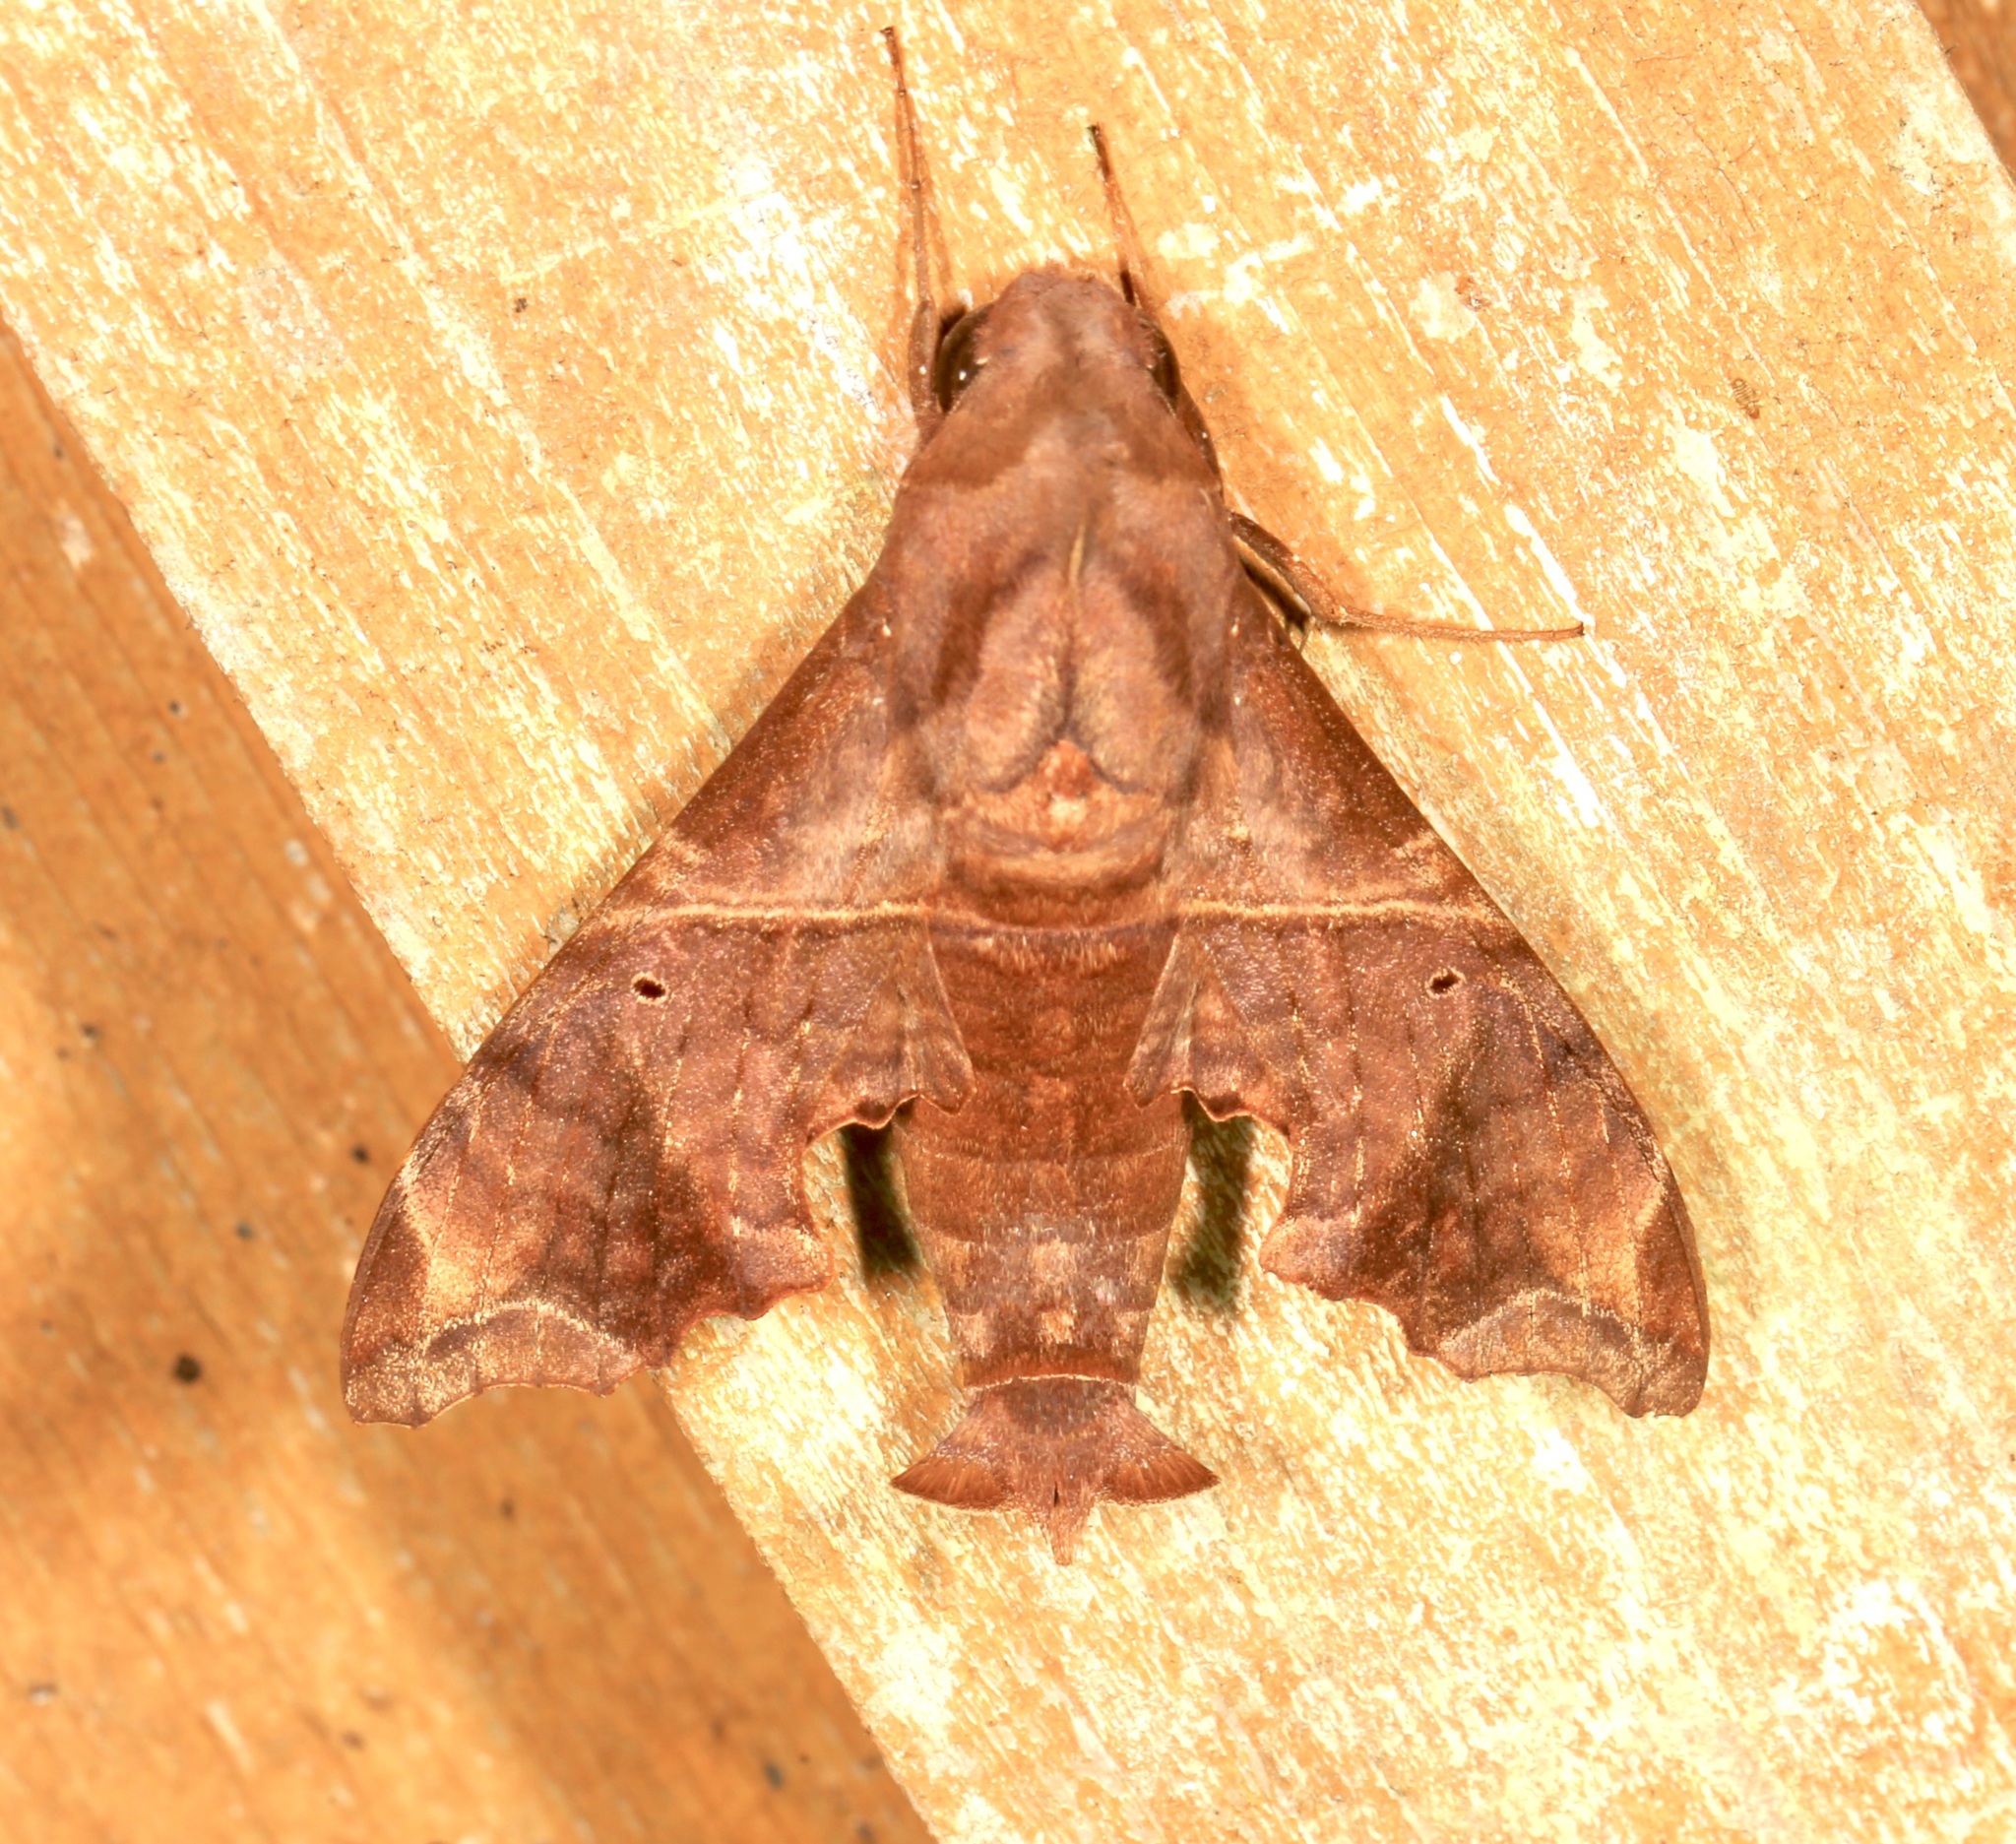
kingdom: Animalia
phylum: Arthropoda
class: Insecta
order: Lepidoptera
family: Sphingidae
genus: Enyo
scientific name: Enyo lugubris
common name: Mournful sphinx
